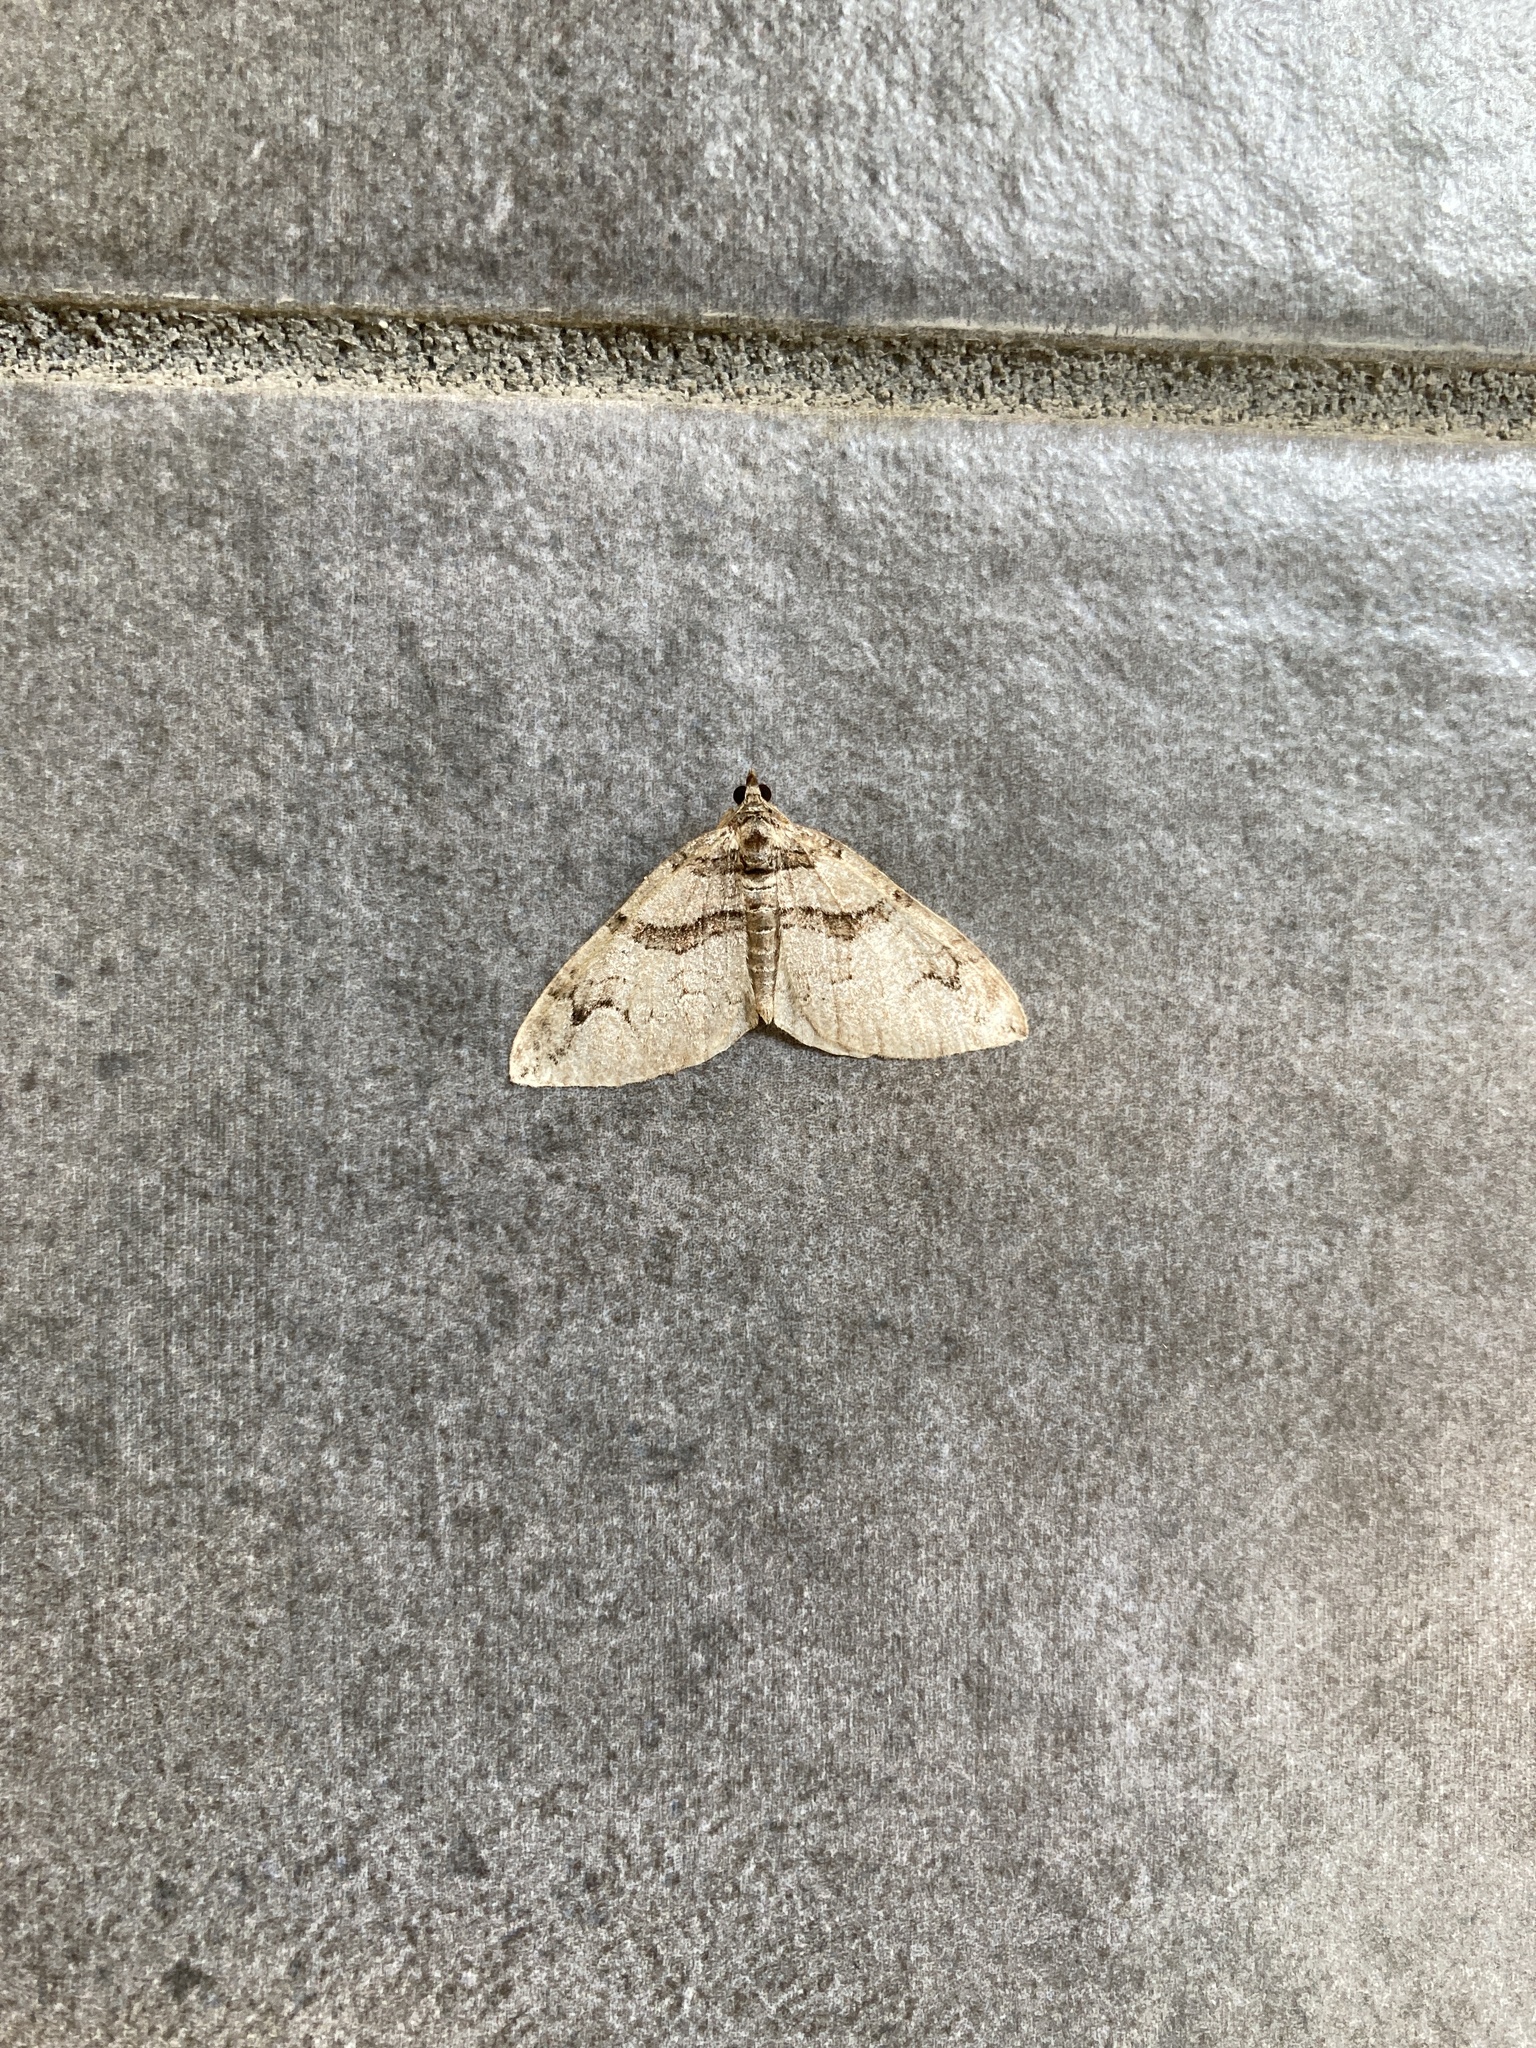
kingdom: Animalia
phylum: Arthropoda
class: Insecta
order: Lepidoptera
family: Geometridae
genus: Pareulype
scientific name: Pareulype berberata
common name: Barberry carpet
